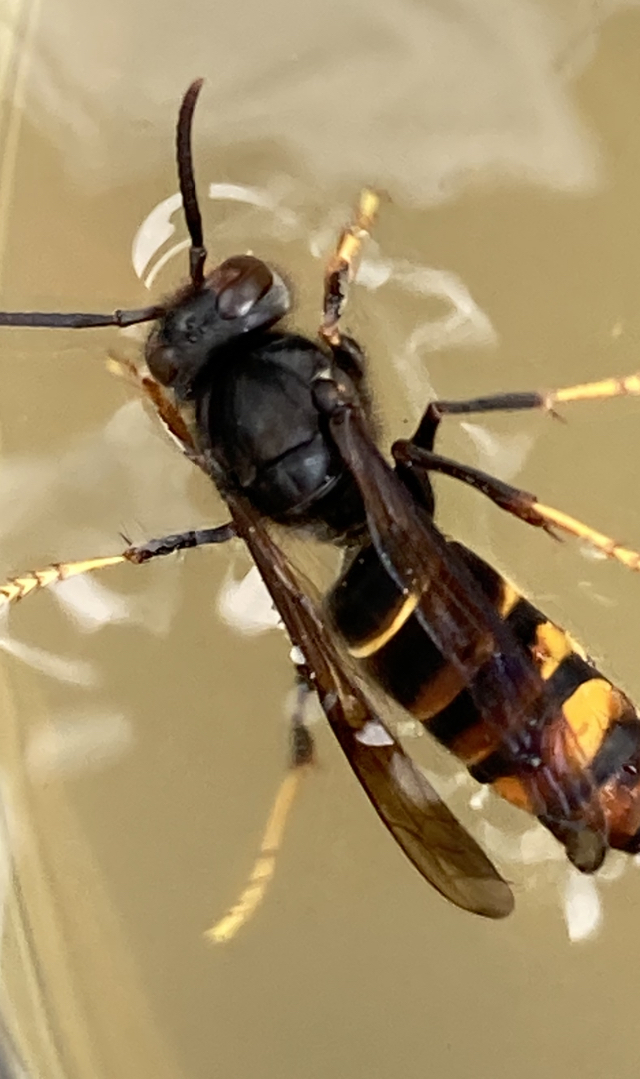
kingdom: Animalia
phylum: Arthropoda
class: Insecta
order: Hymenoptera
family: Vespidae
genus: Vespa
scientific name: Vespa velutina
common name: Asian hornet
